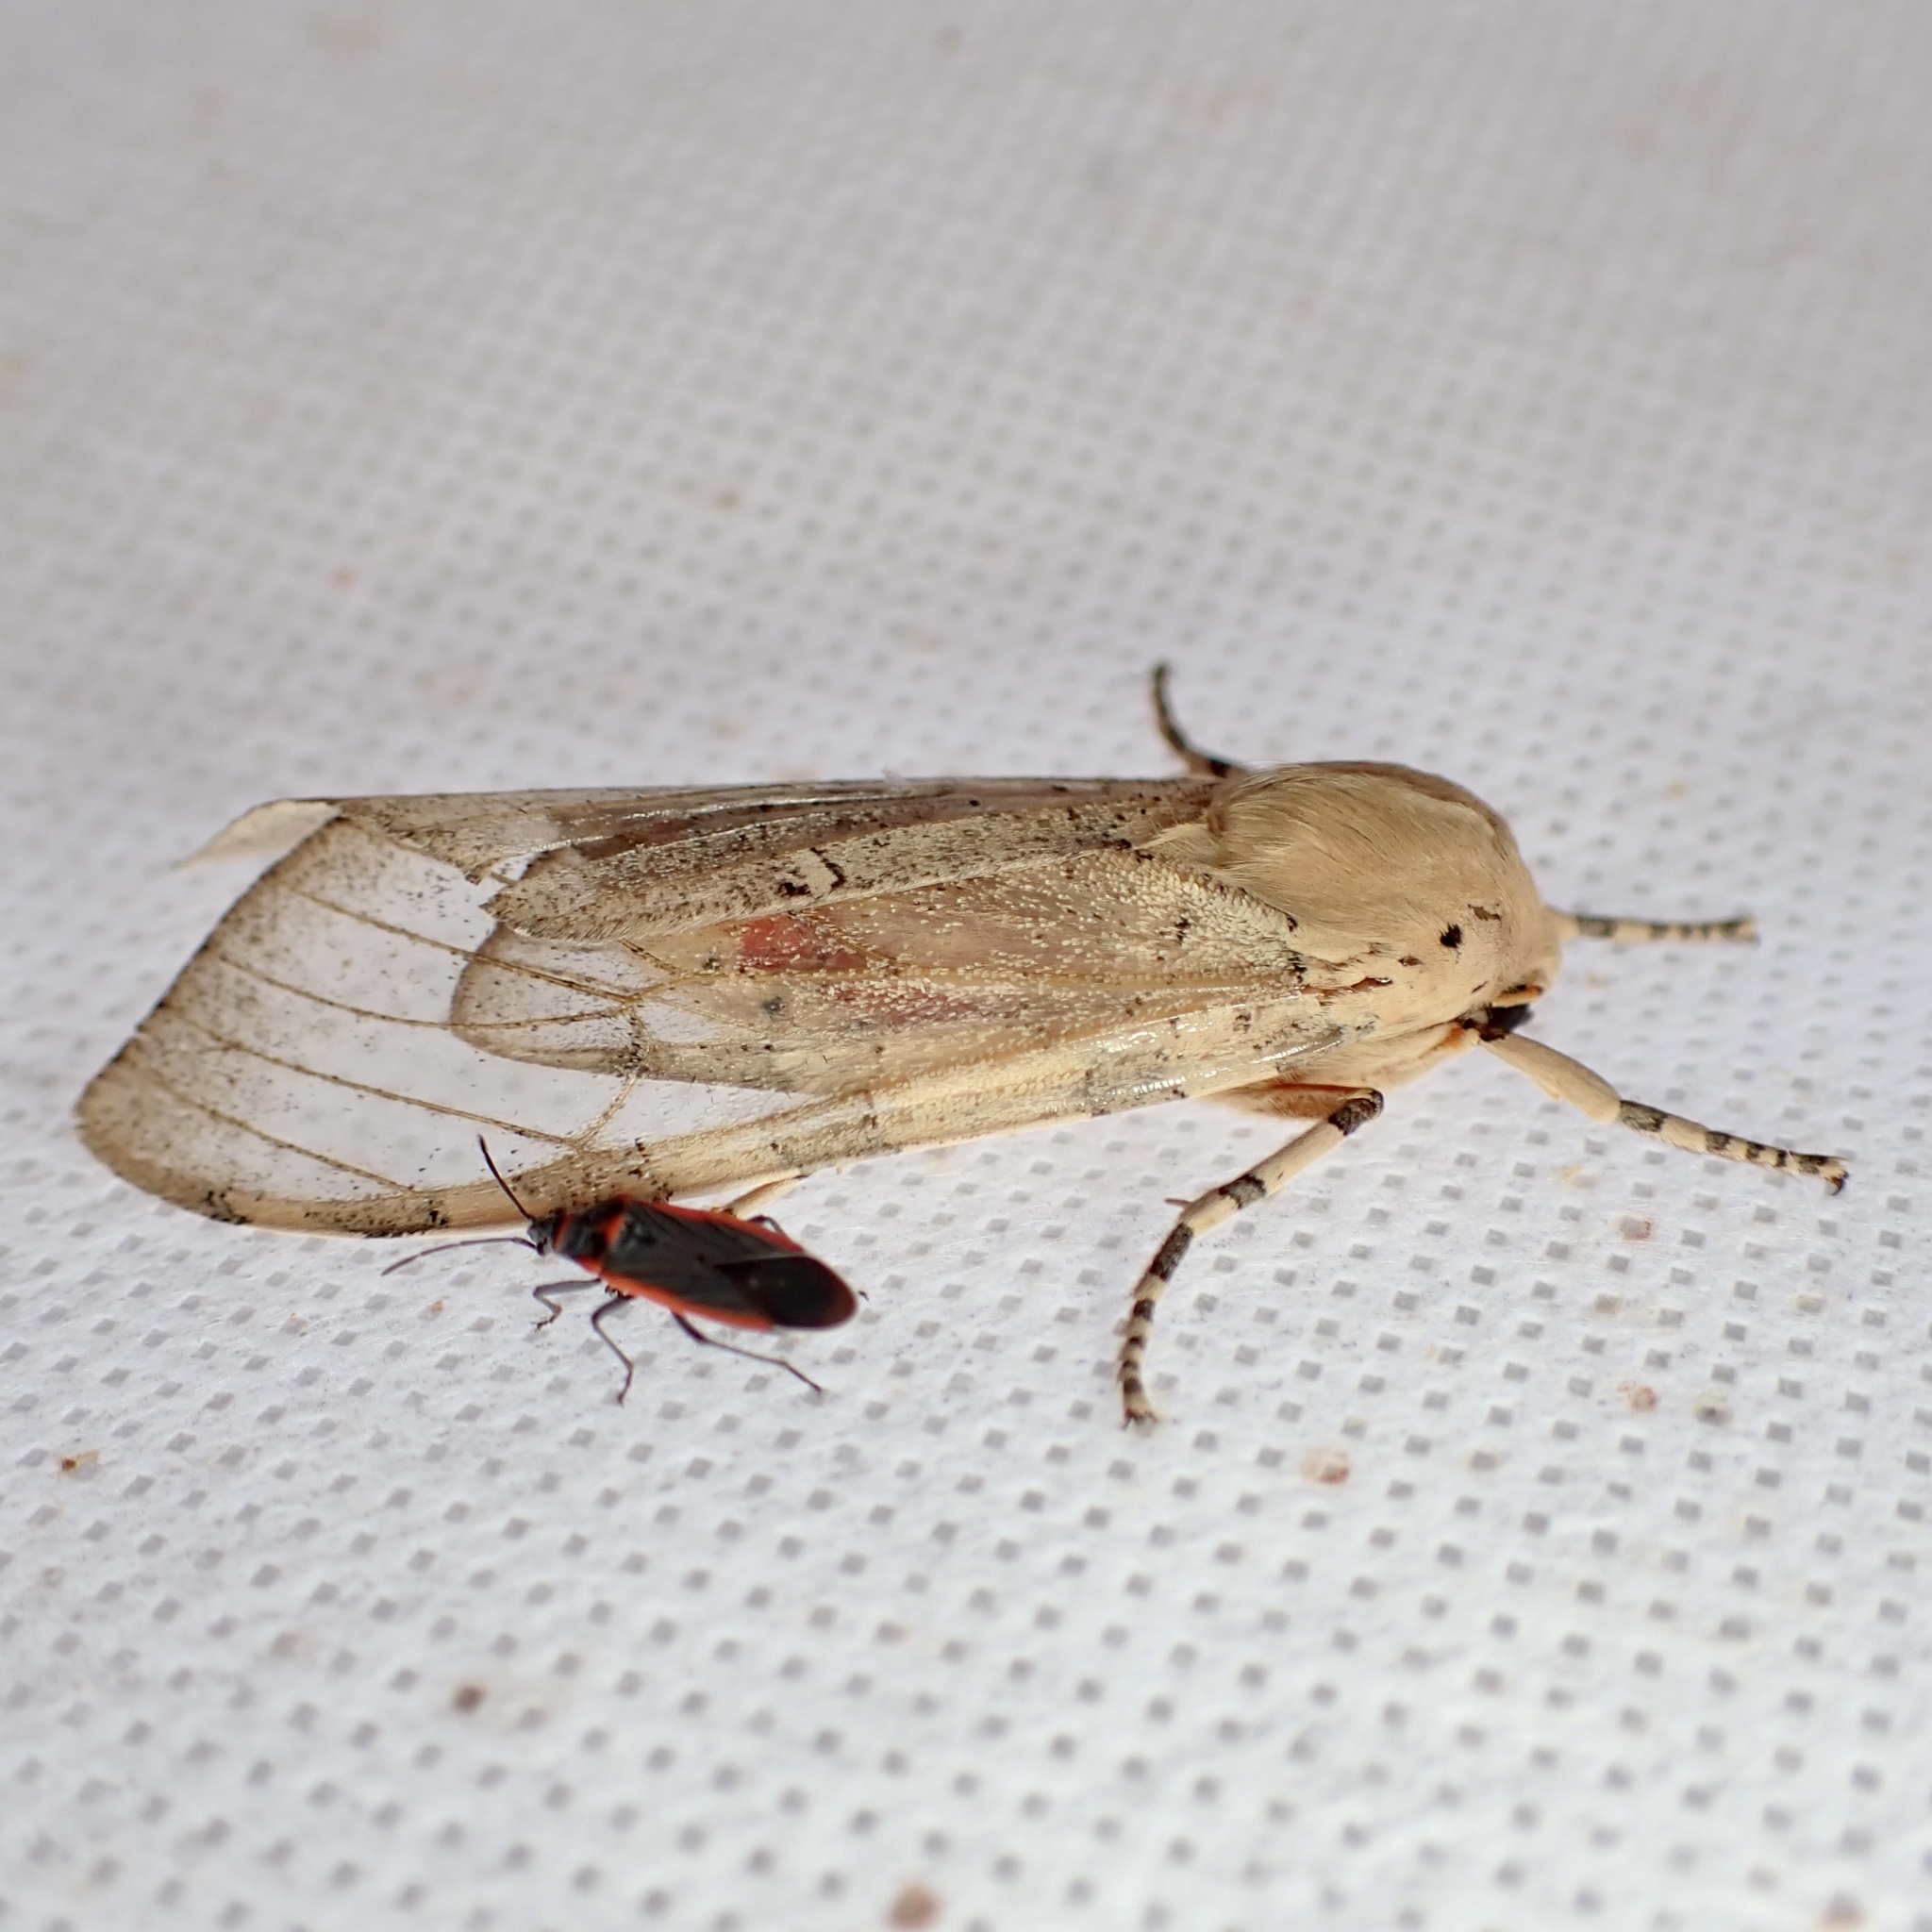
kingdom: Animalia
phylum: Arthropoda
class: Insecta
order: Lepidoptera
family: Erebidae
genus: Hemihyalea
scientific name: Hemihyalea edwardsii
